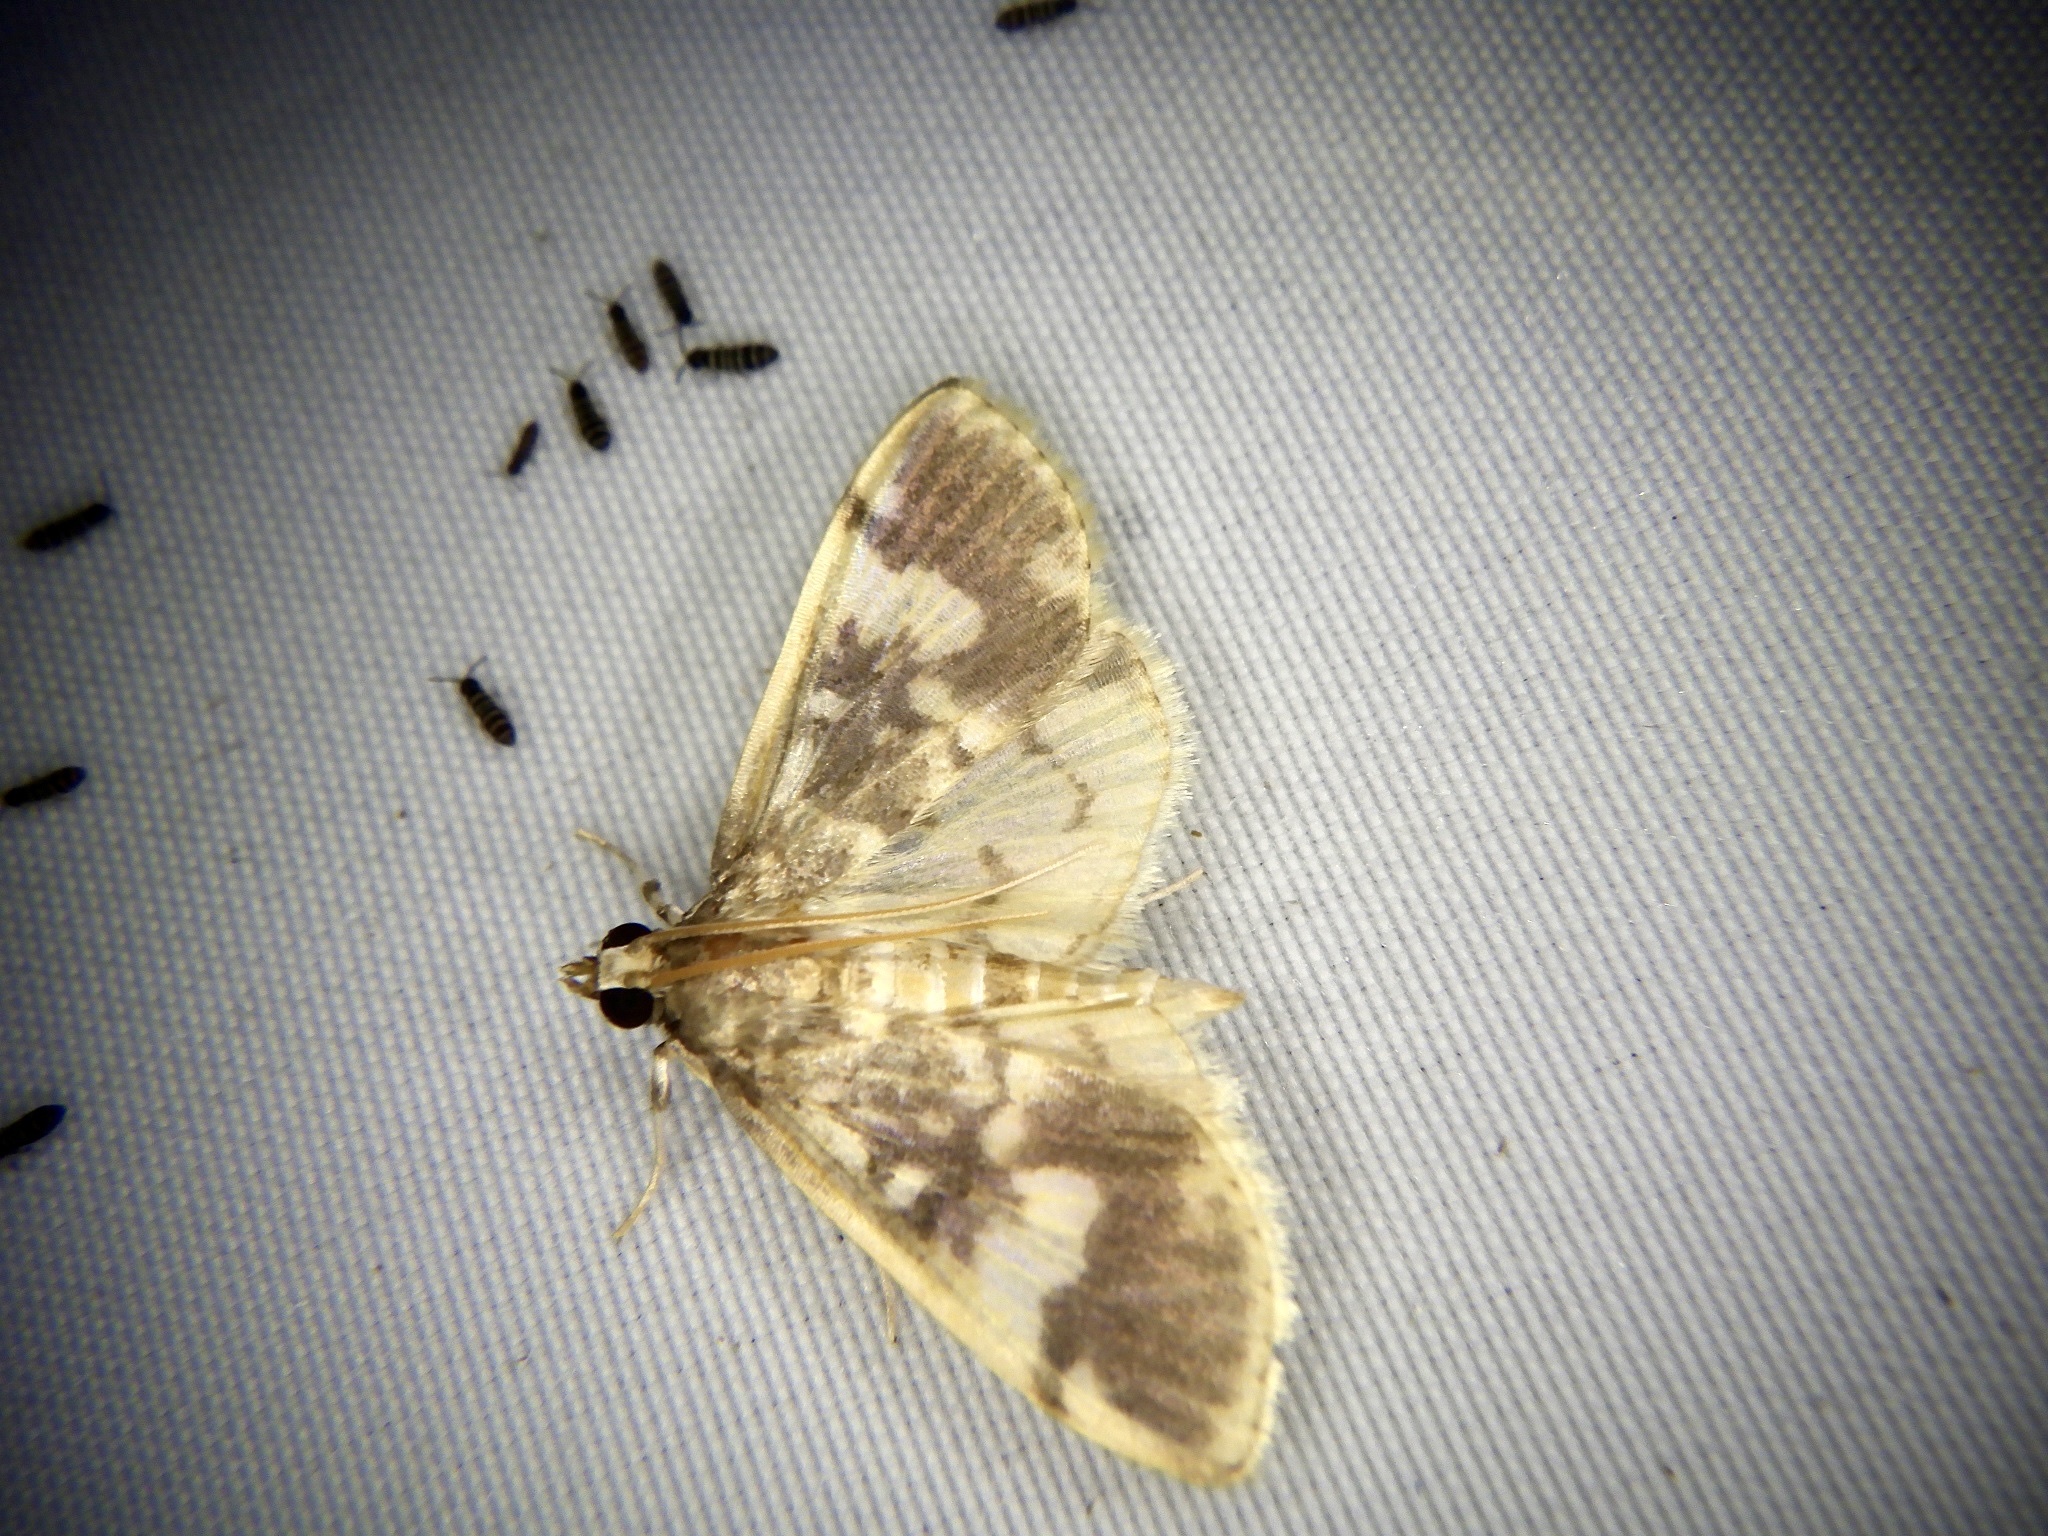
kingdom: Animalia
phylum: Arthropoda
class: Insecta
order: Lepidoptera
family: Crambidae
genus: Pseudebulea
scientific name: Pseudebulea fentoni
